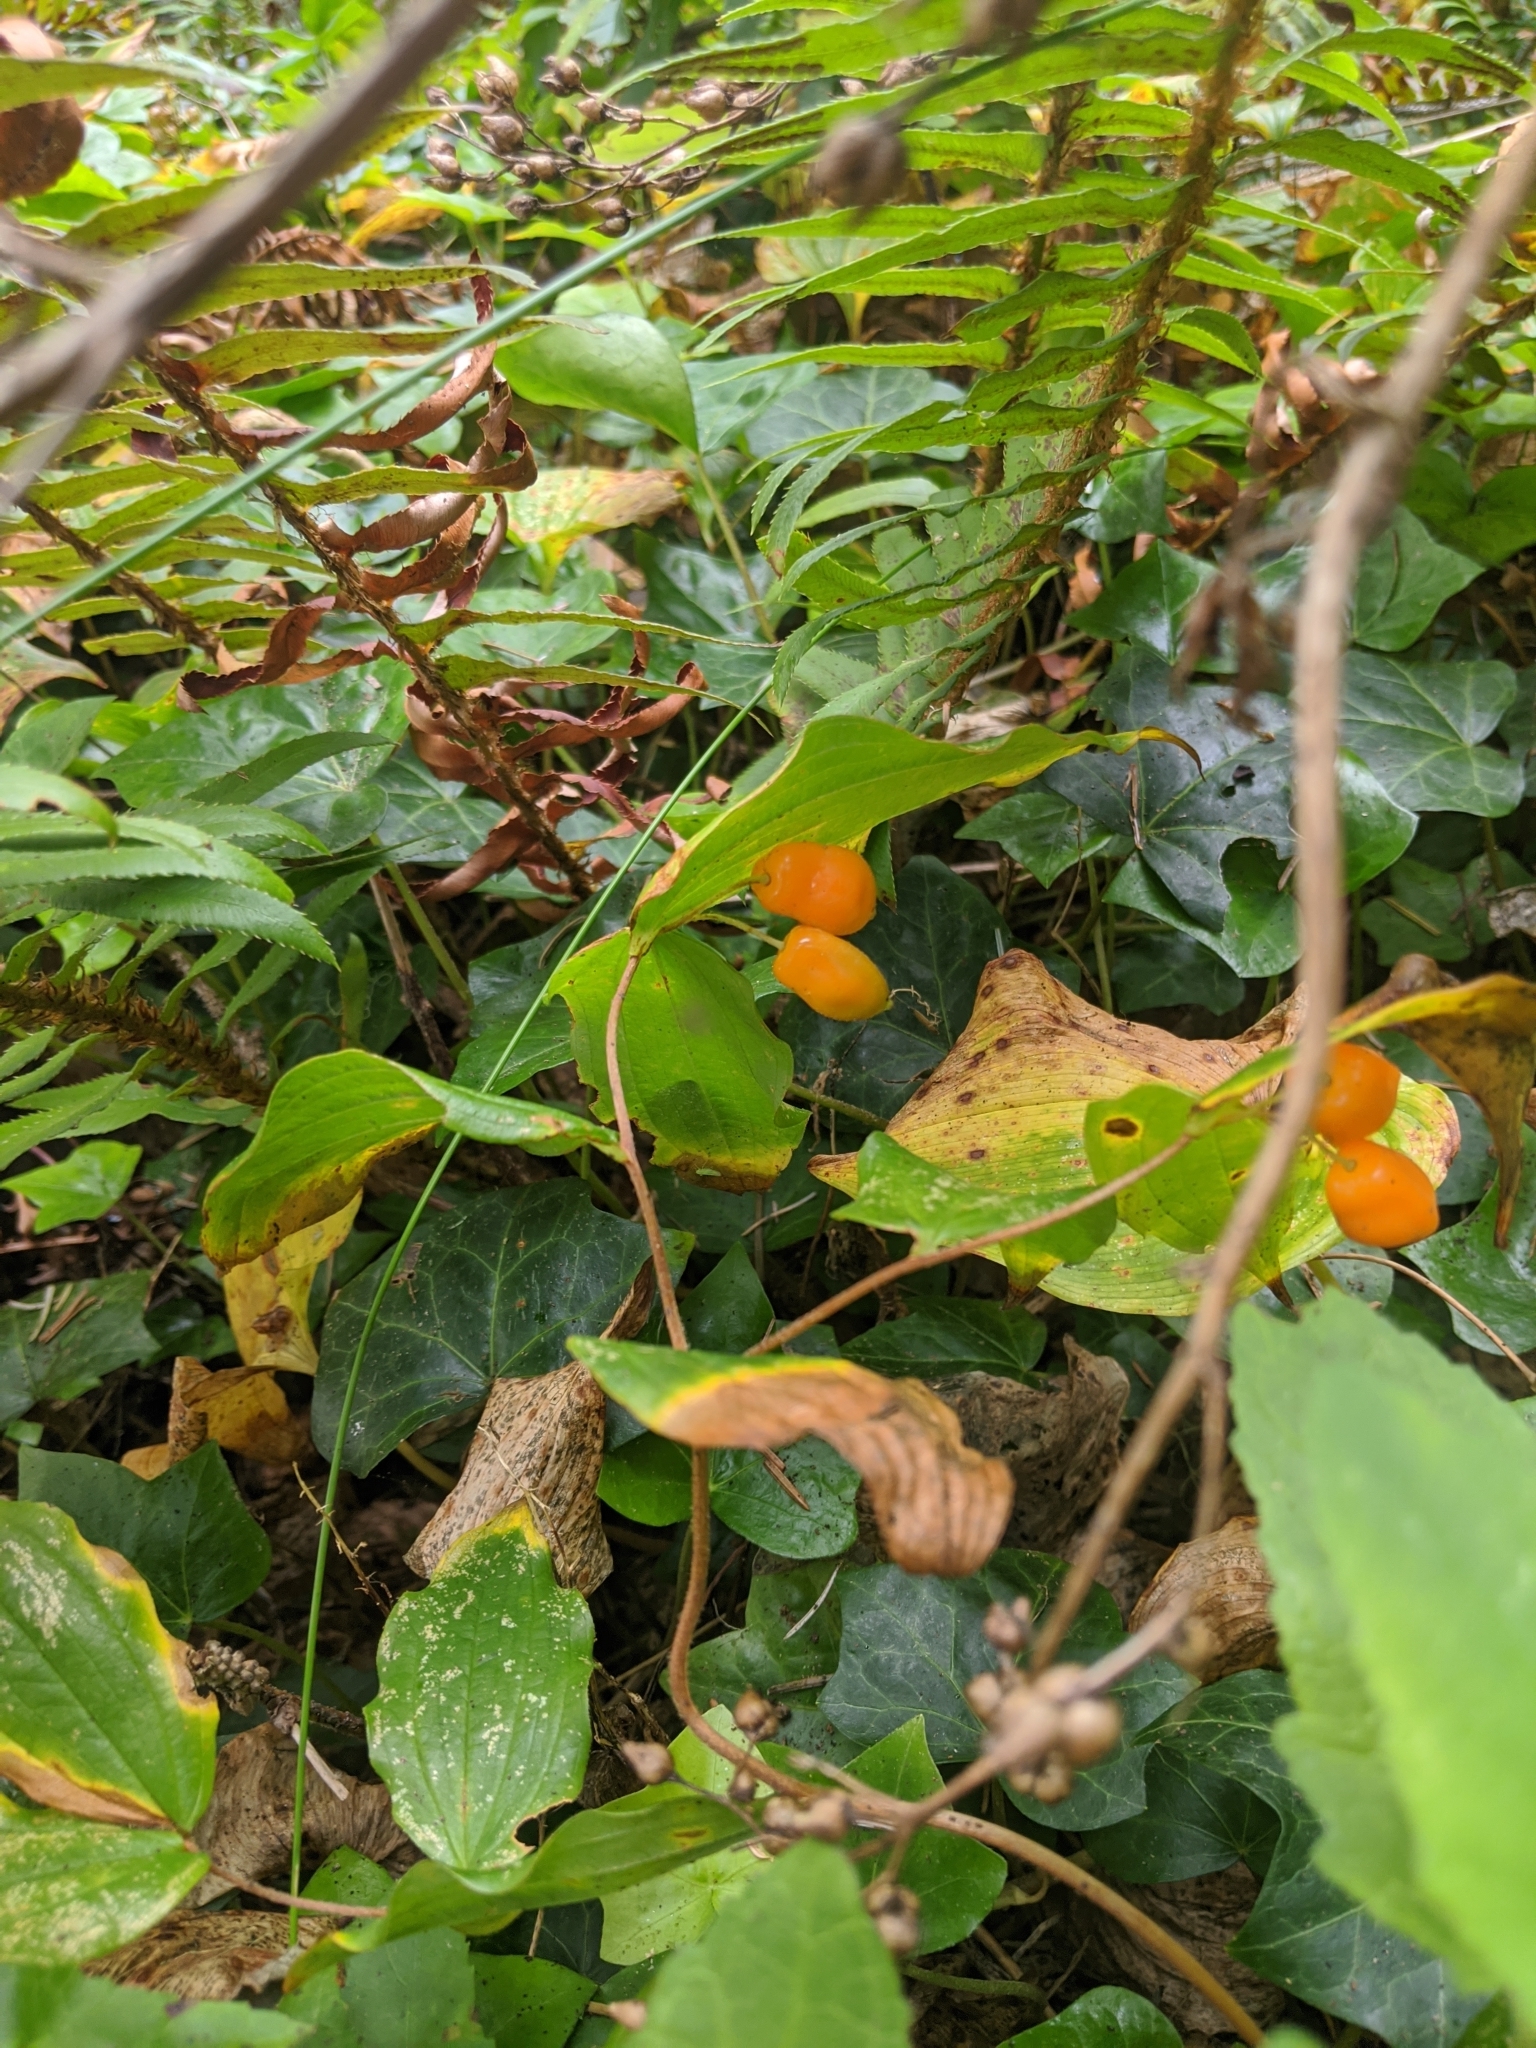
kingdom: Plantae
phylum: Tracheophyta
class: Liliopsida
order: Liliales
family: Liliaceae
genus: Prosartes
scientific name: Prosartes smithii
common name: Fairy-lantern
